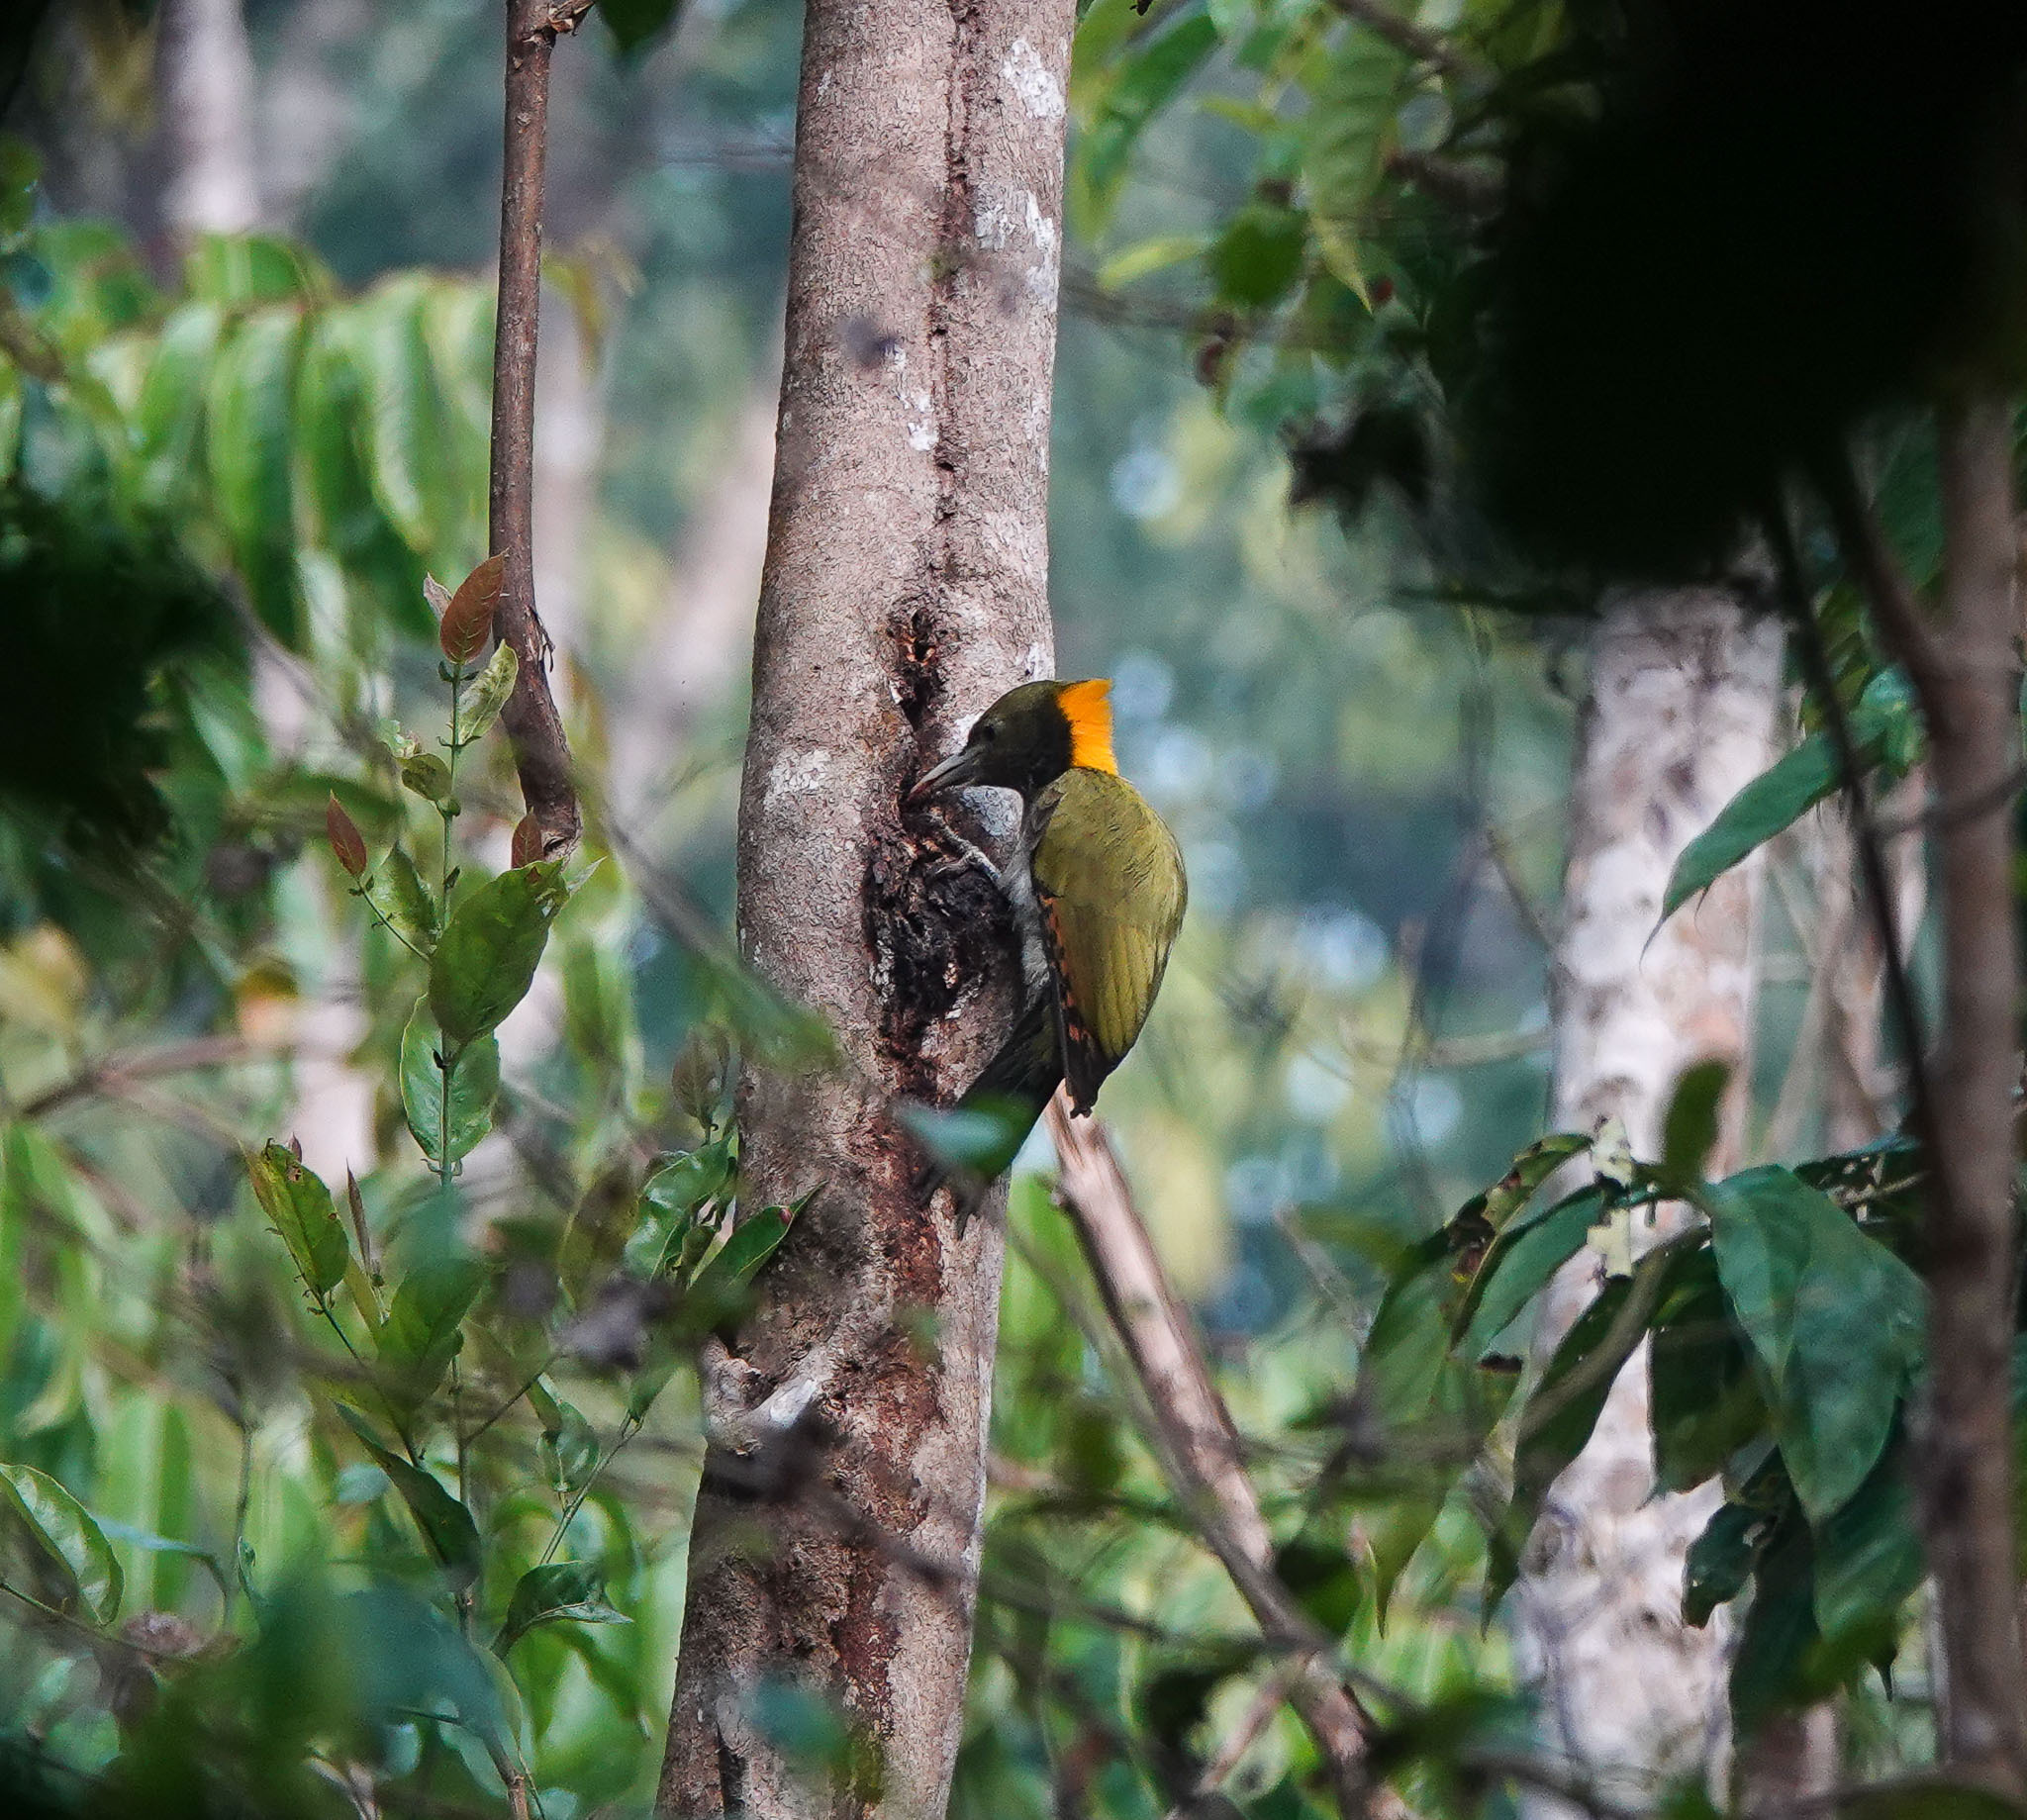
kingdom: Animalia
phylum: Chordata
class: Aves
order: Piciformes
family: Picidae
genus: Picus
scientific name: Picus chlorolophus
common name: Lesser yellownape
